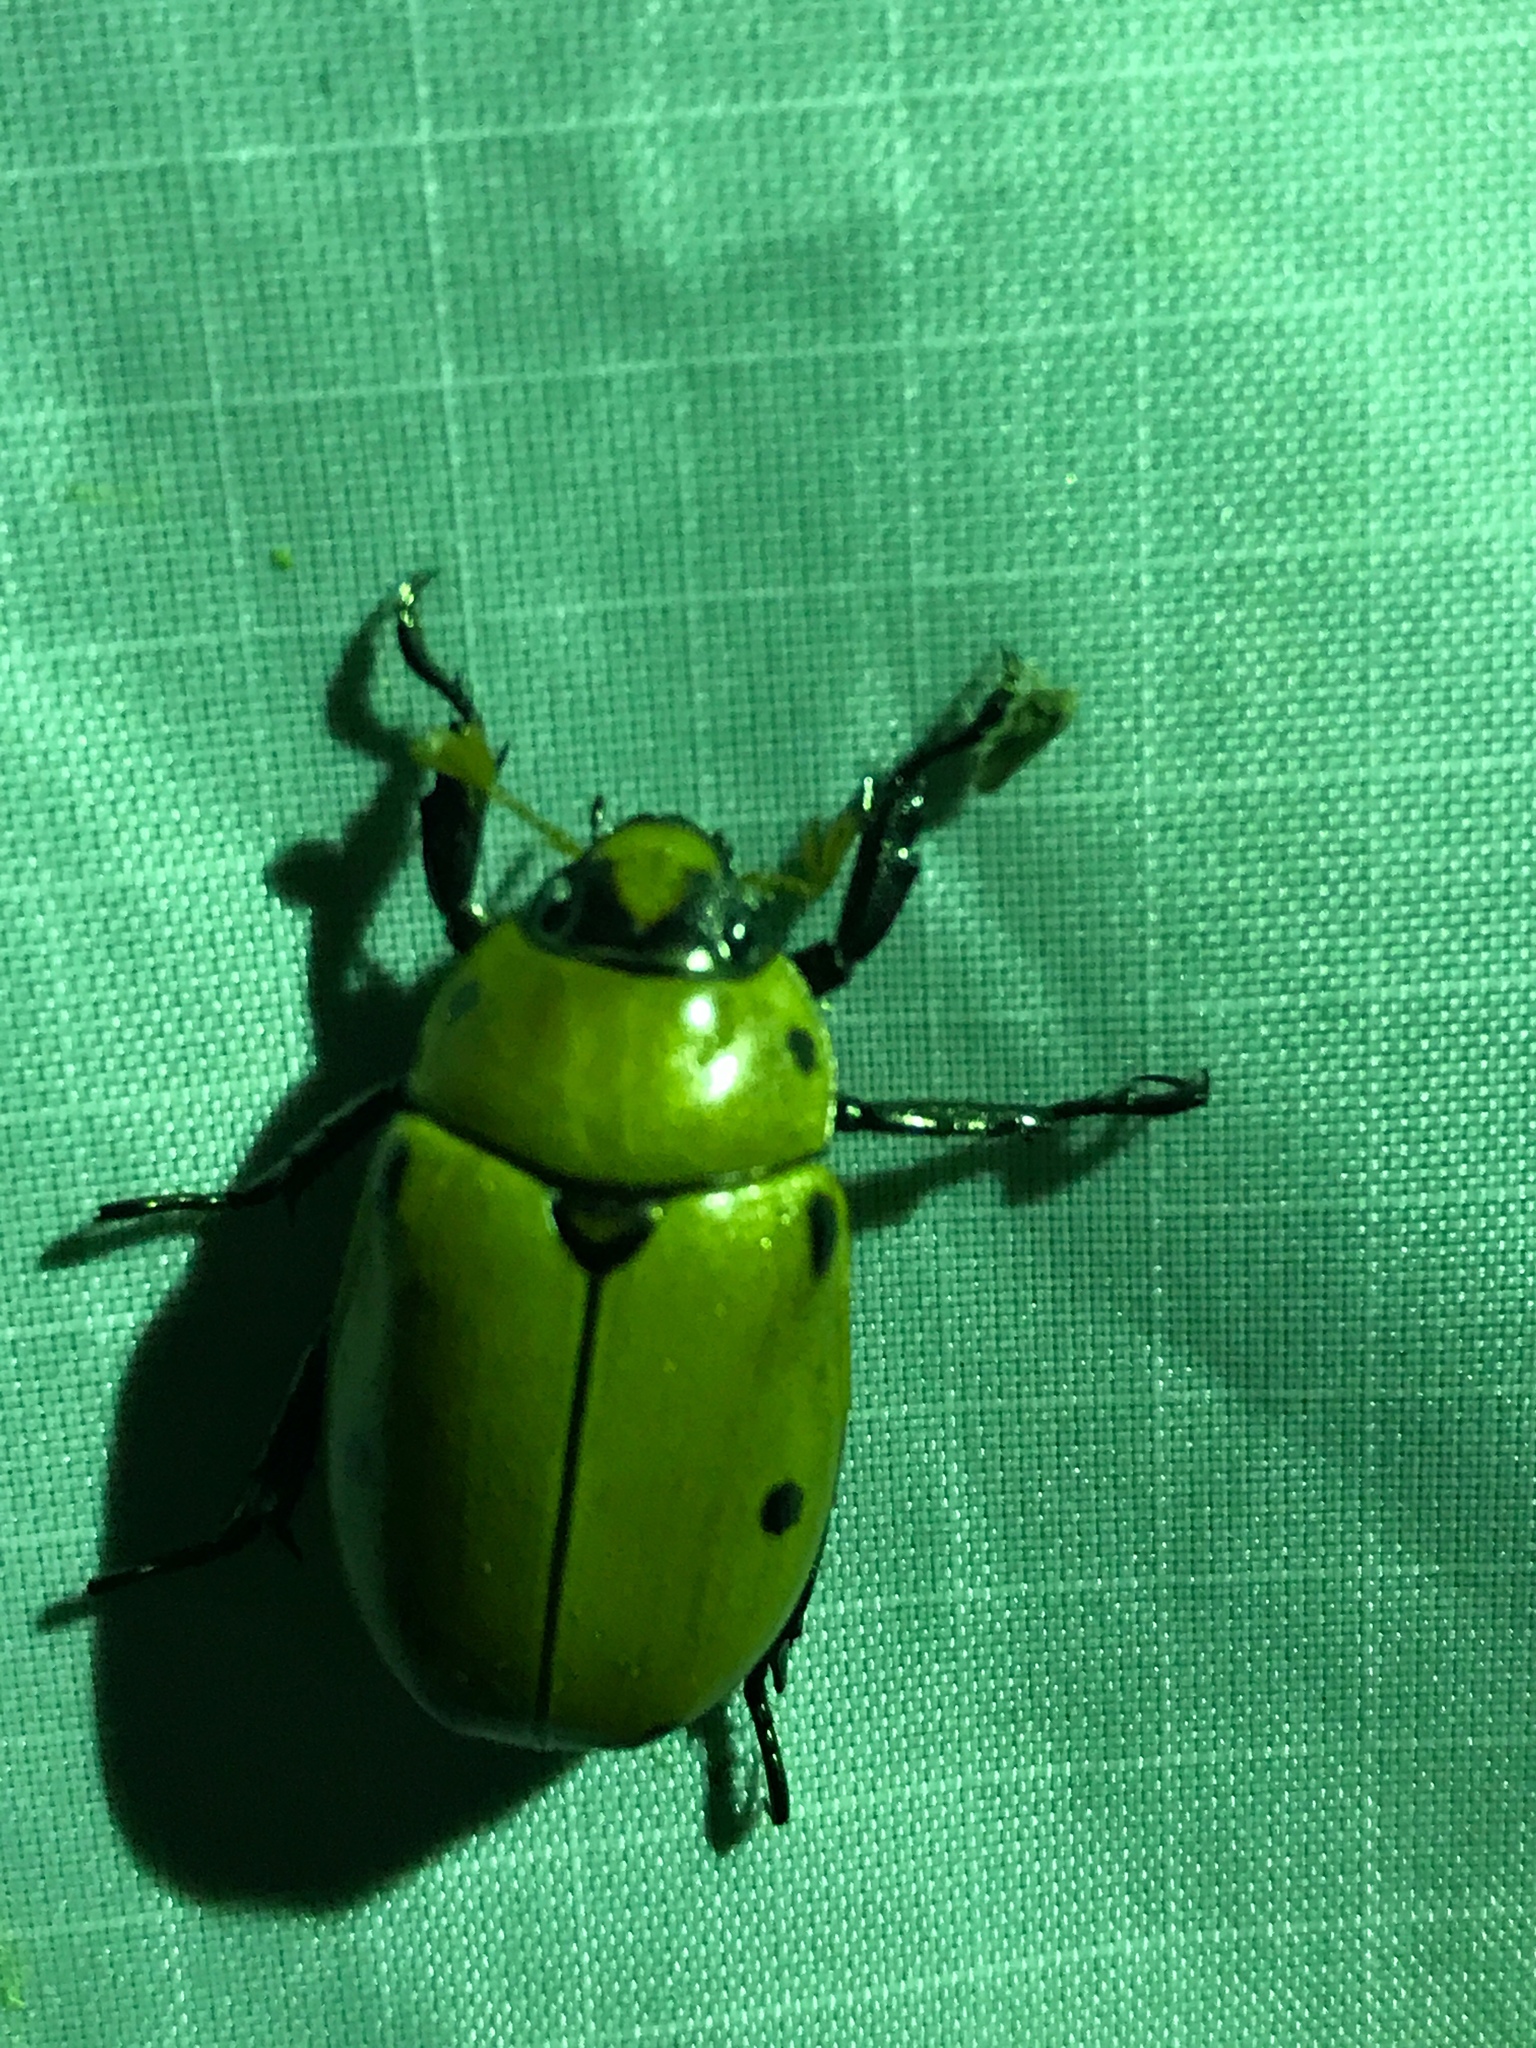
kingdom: Animalia
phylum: Arthropoda
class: Insecta
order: Coleoptera
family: Scarabaeidae
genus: Pelidnota
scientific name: Pelidnota punctata
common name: Grapevine beetle
